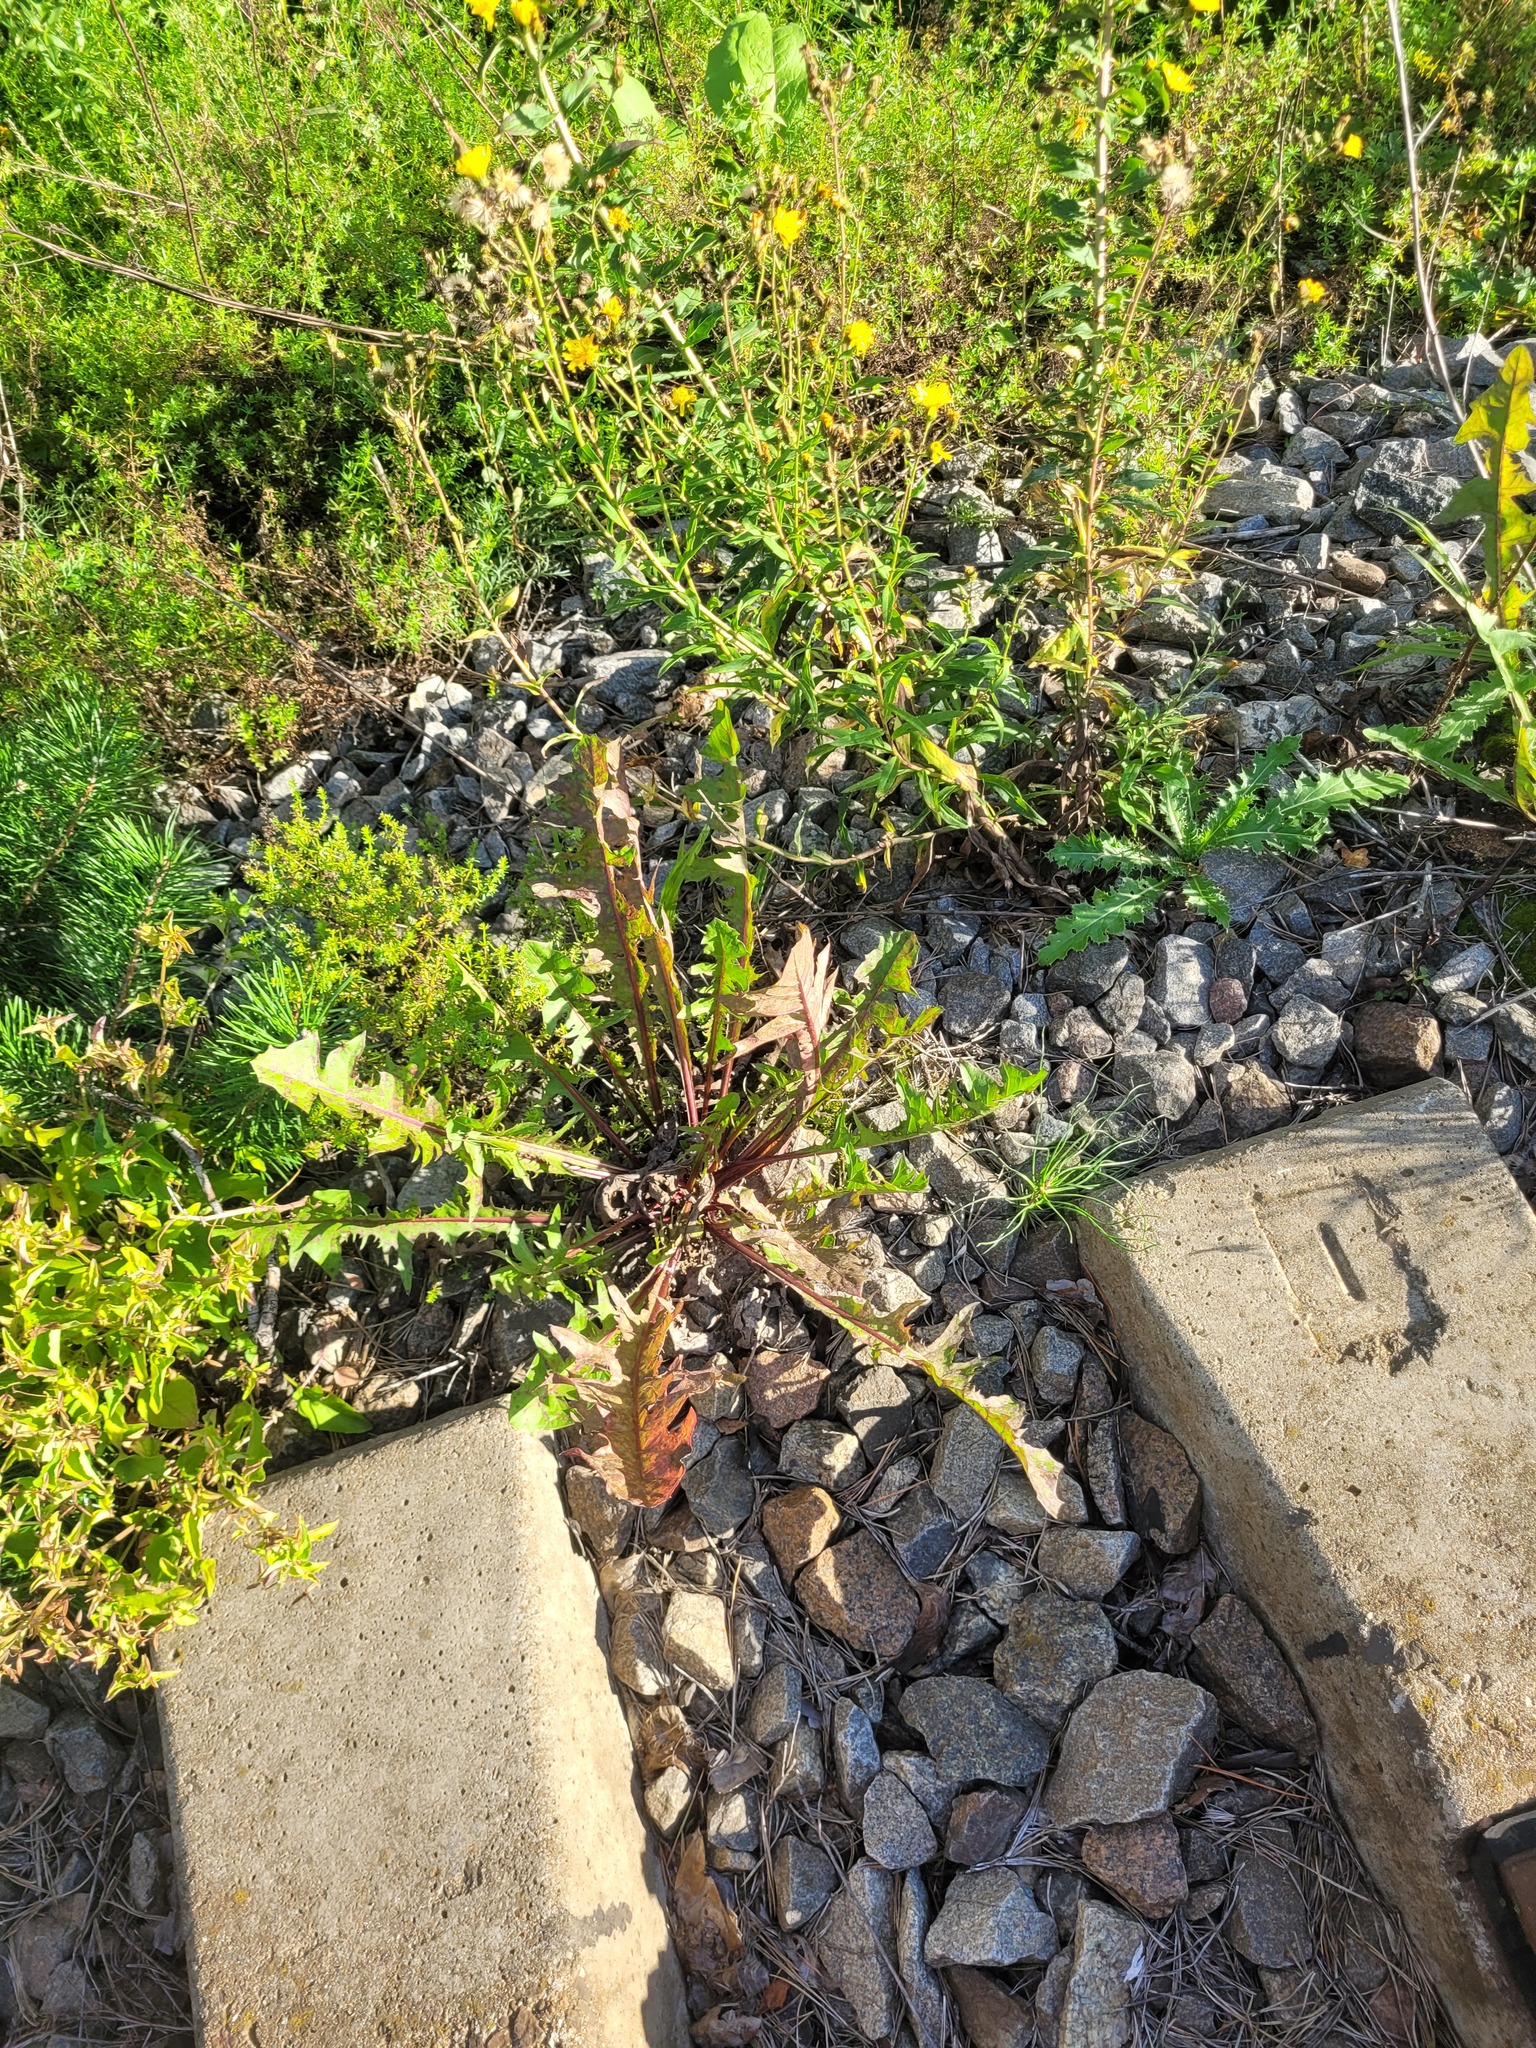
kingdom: Plantae
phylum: Tracheophyta
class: Magnoliopsida
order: Asterales
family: Asteraceae
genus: Taraxacum
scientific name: Taraxacum officinale
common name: Common dandelion
